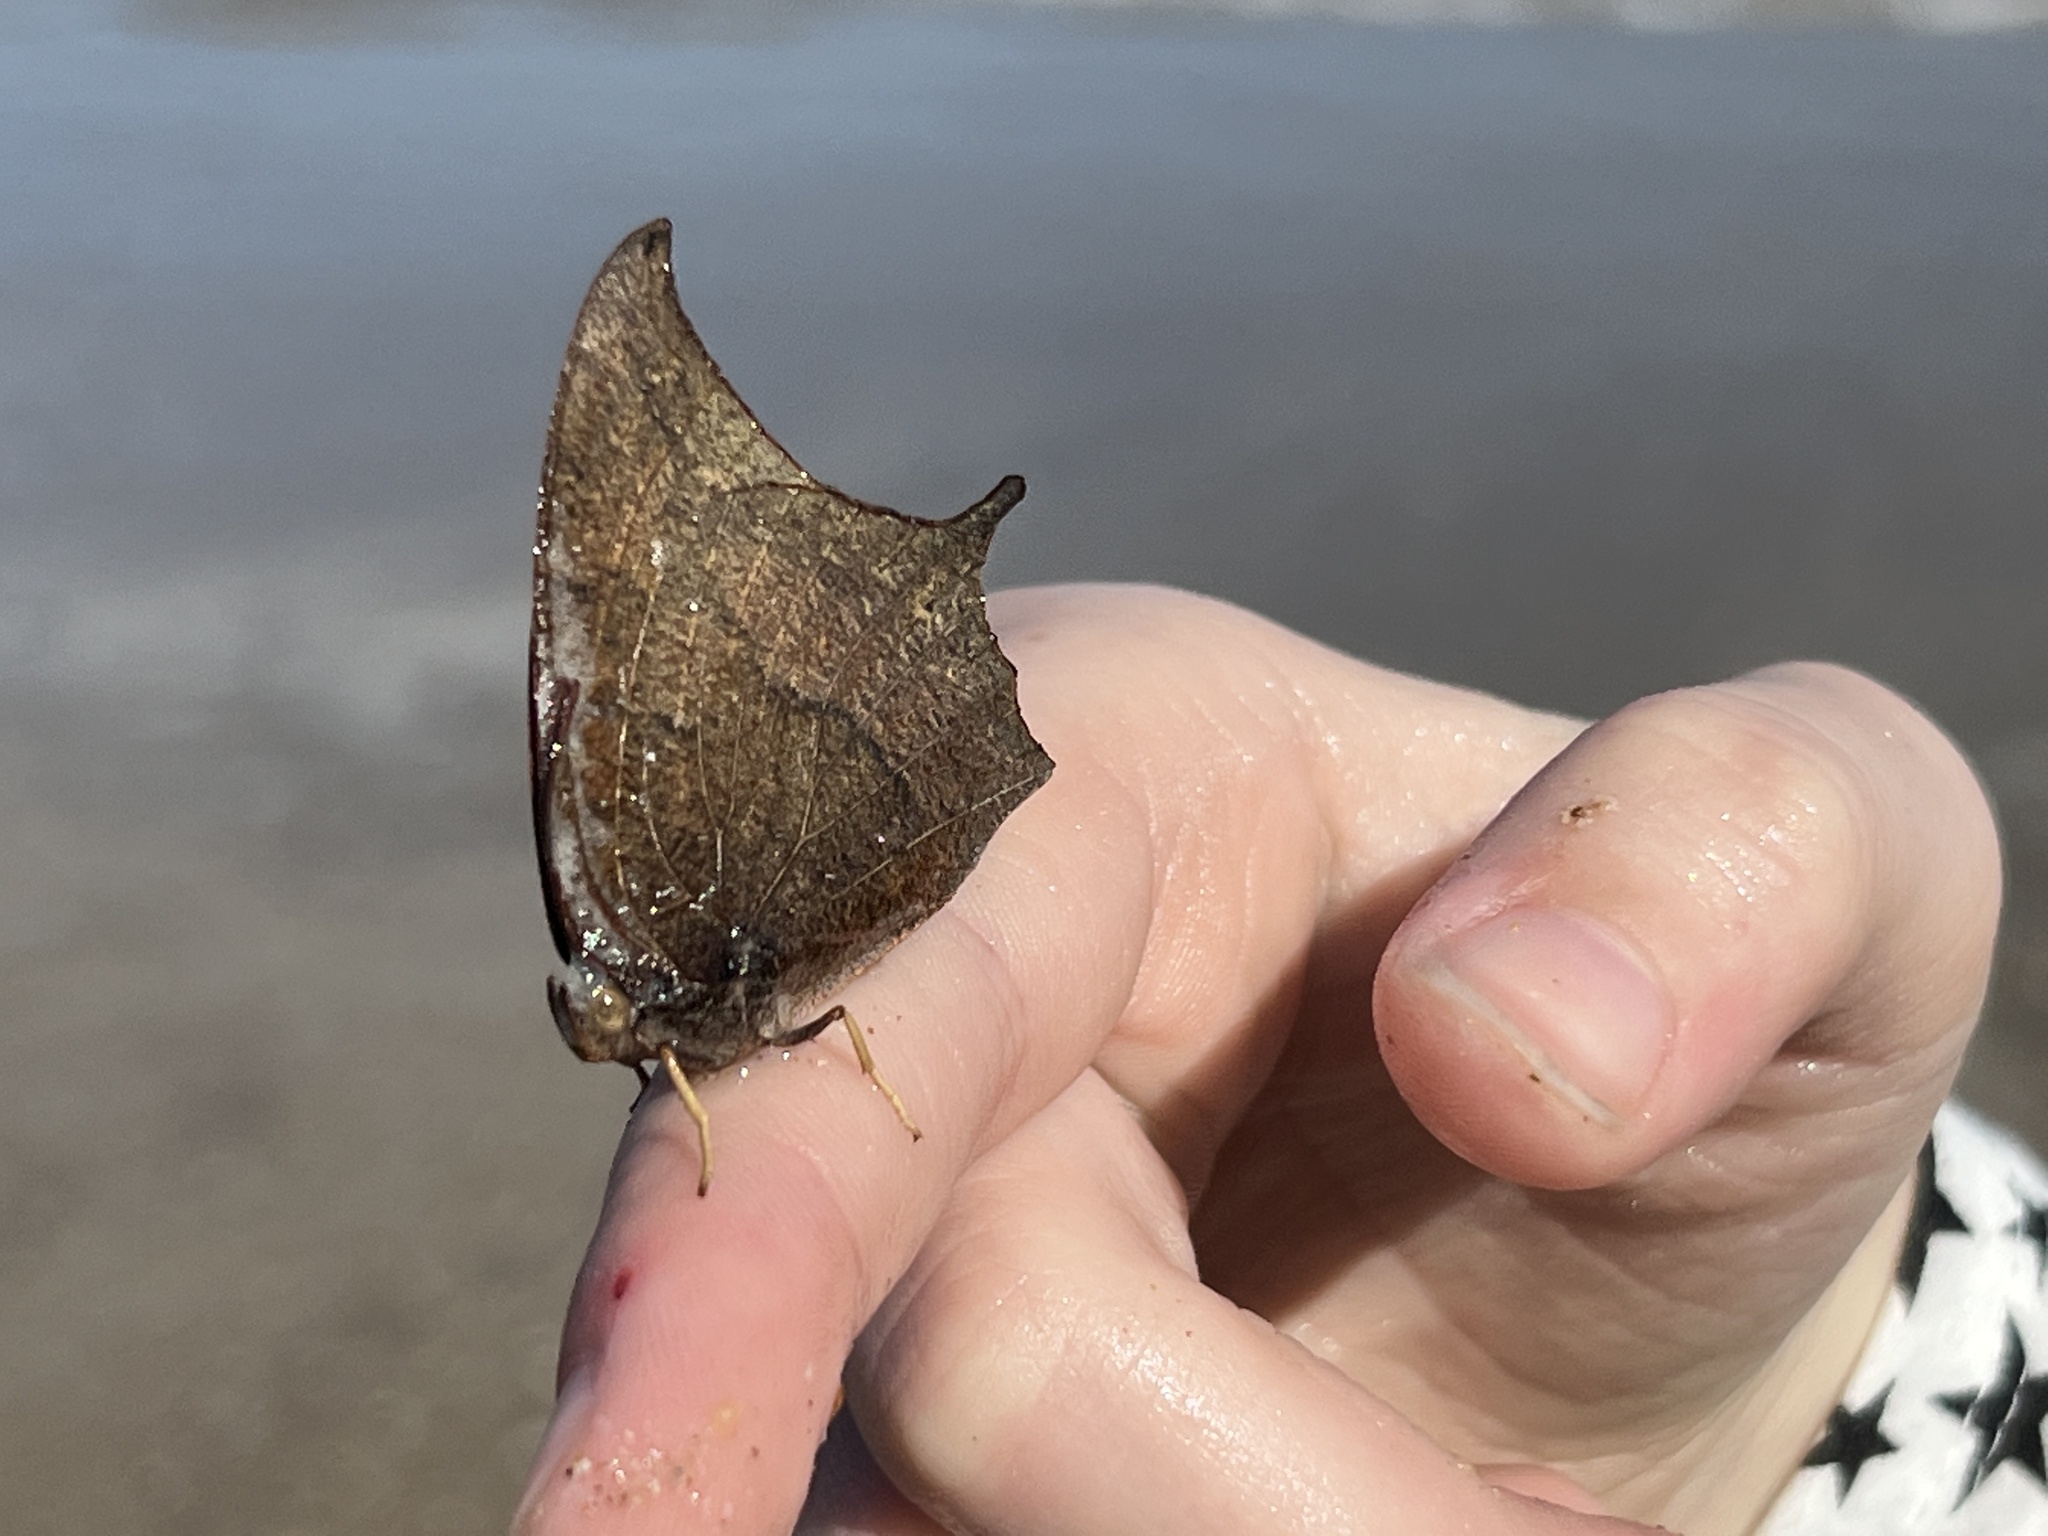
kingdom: Animalia
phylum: Arthropoda
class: Insecta
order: Lepidoptera
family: Nymphalidae
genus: Anaea
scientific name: Anaea andria
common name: Goatweed leafwing
